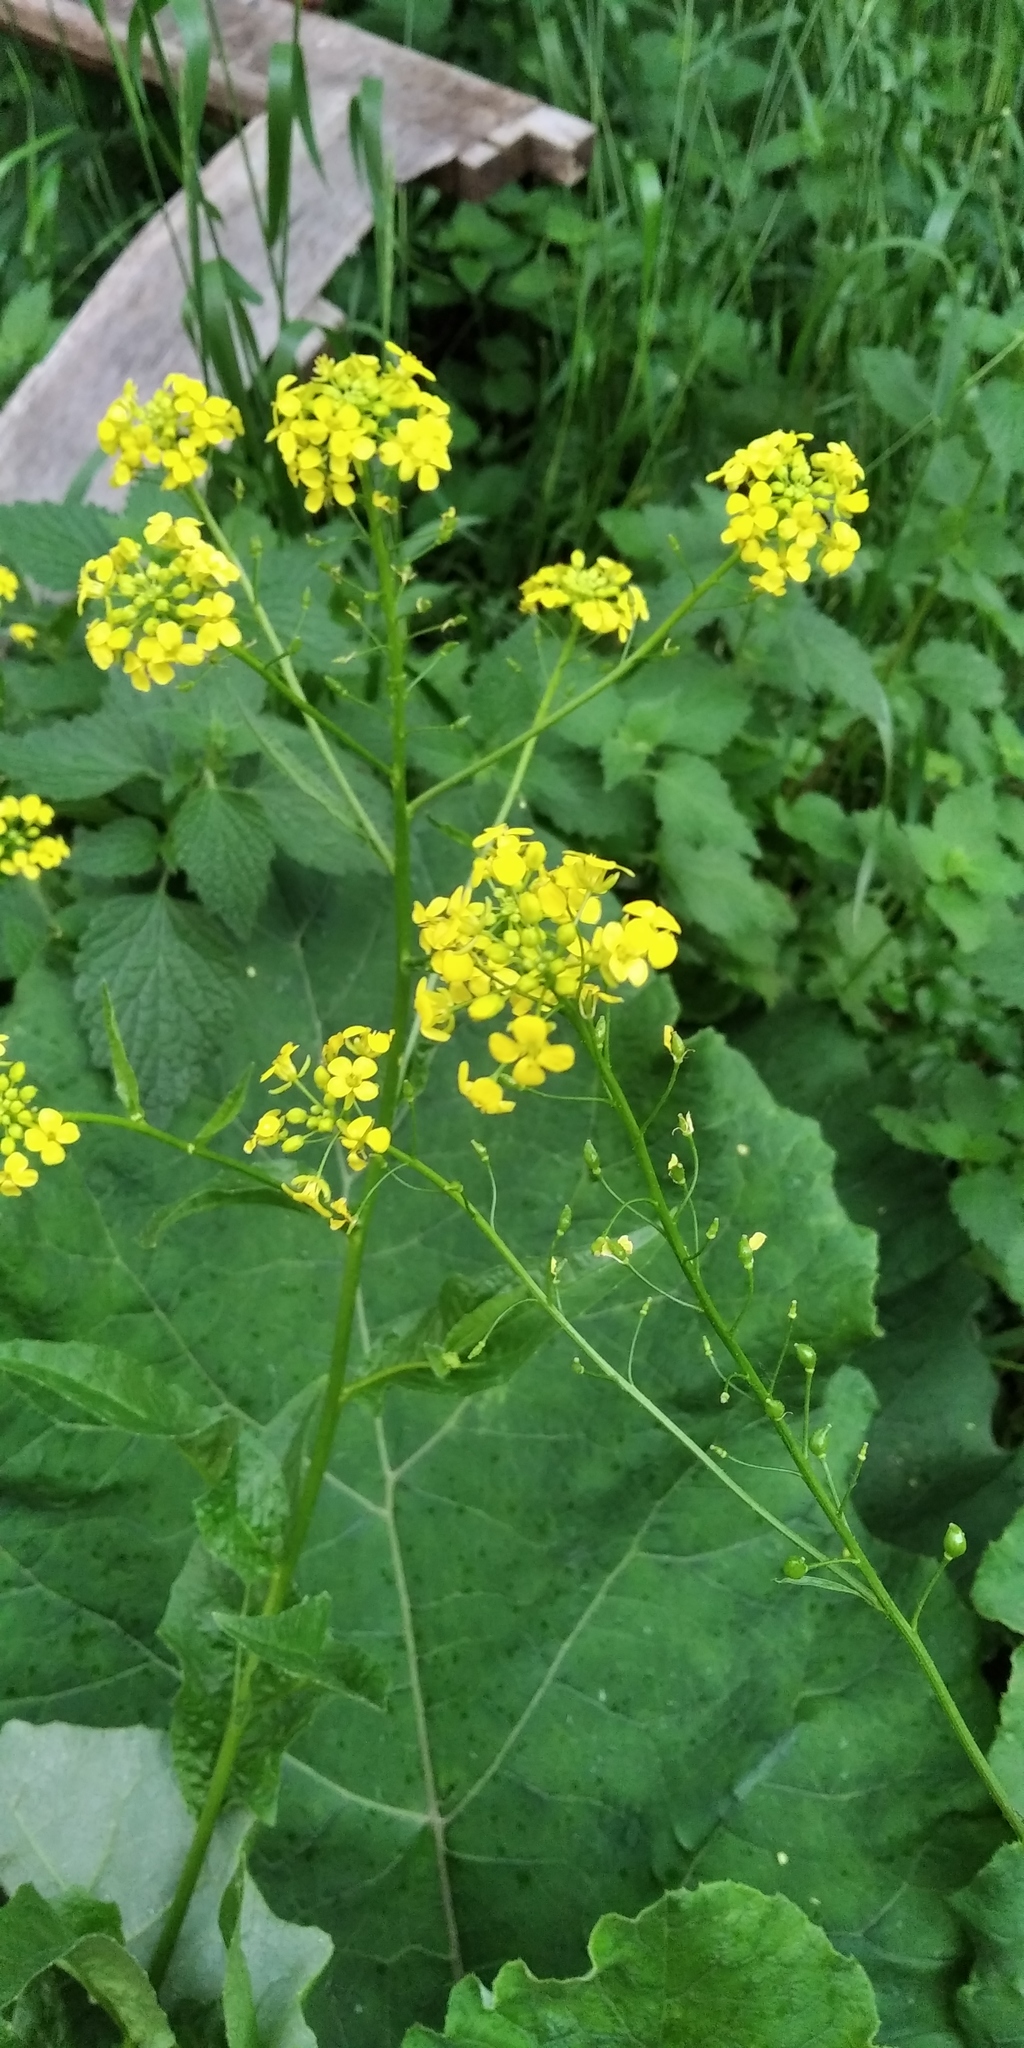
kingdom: Plantae
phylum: Tracheophyta
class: Magnoliopsida
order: Brassicales
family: Brassicaceae
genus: Bunias
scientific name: Bunias orientalis
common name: Warty-cabbage
